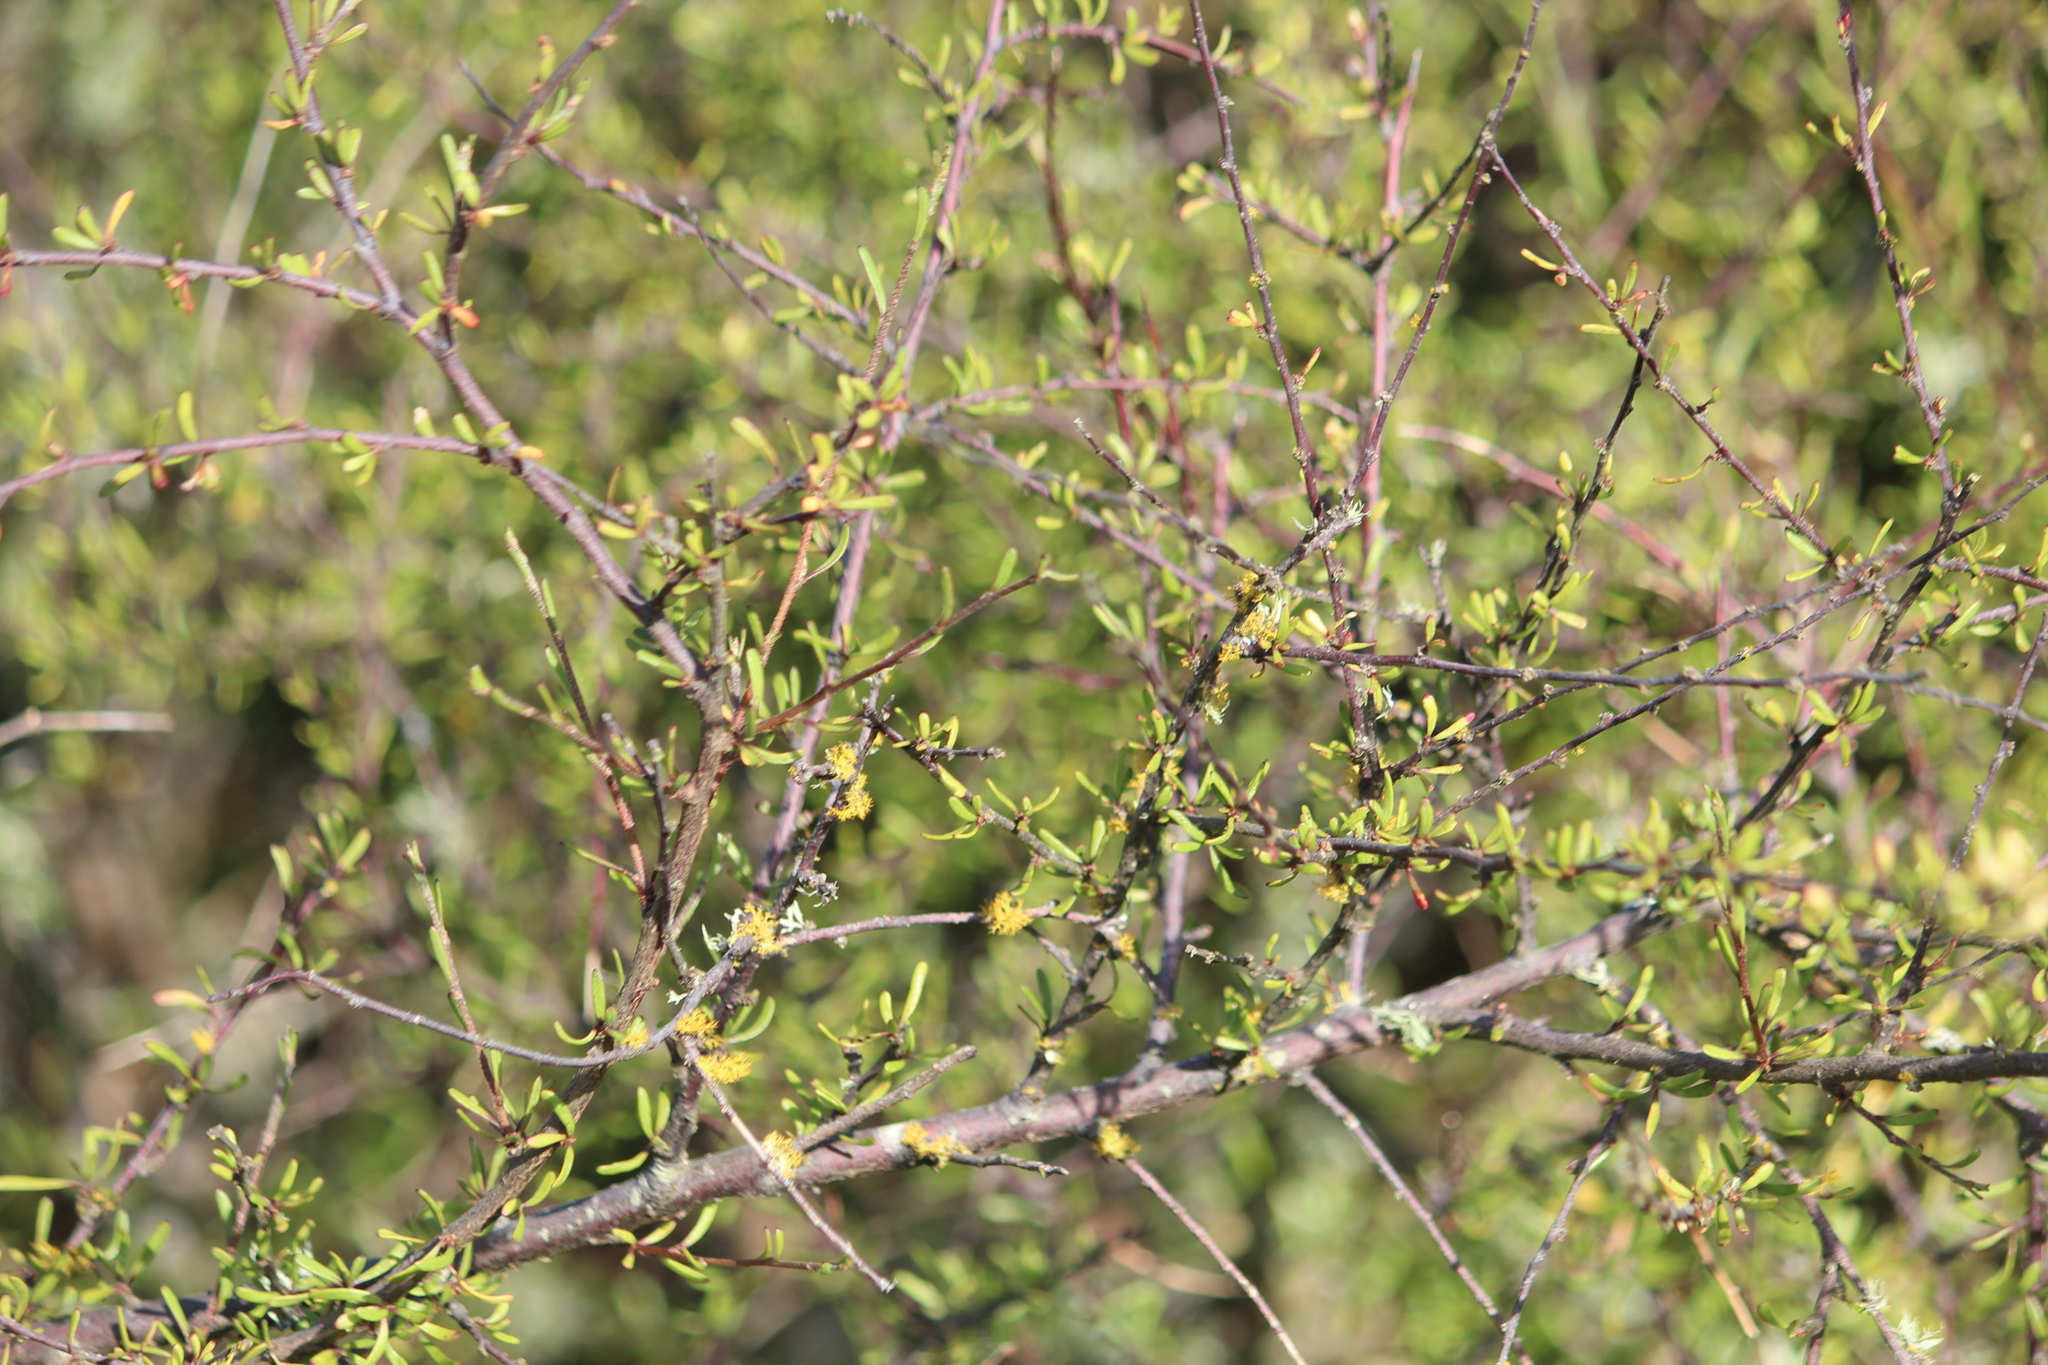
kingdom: Plantae
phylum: Tracheophyta
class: Magnoliopsida
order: Malvales
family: Malvaceae
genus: Plagianthus
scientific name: Plagianthus divaricatus
